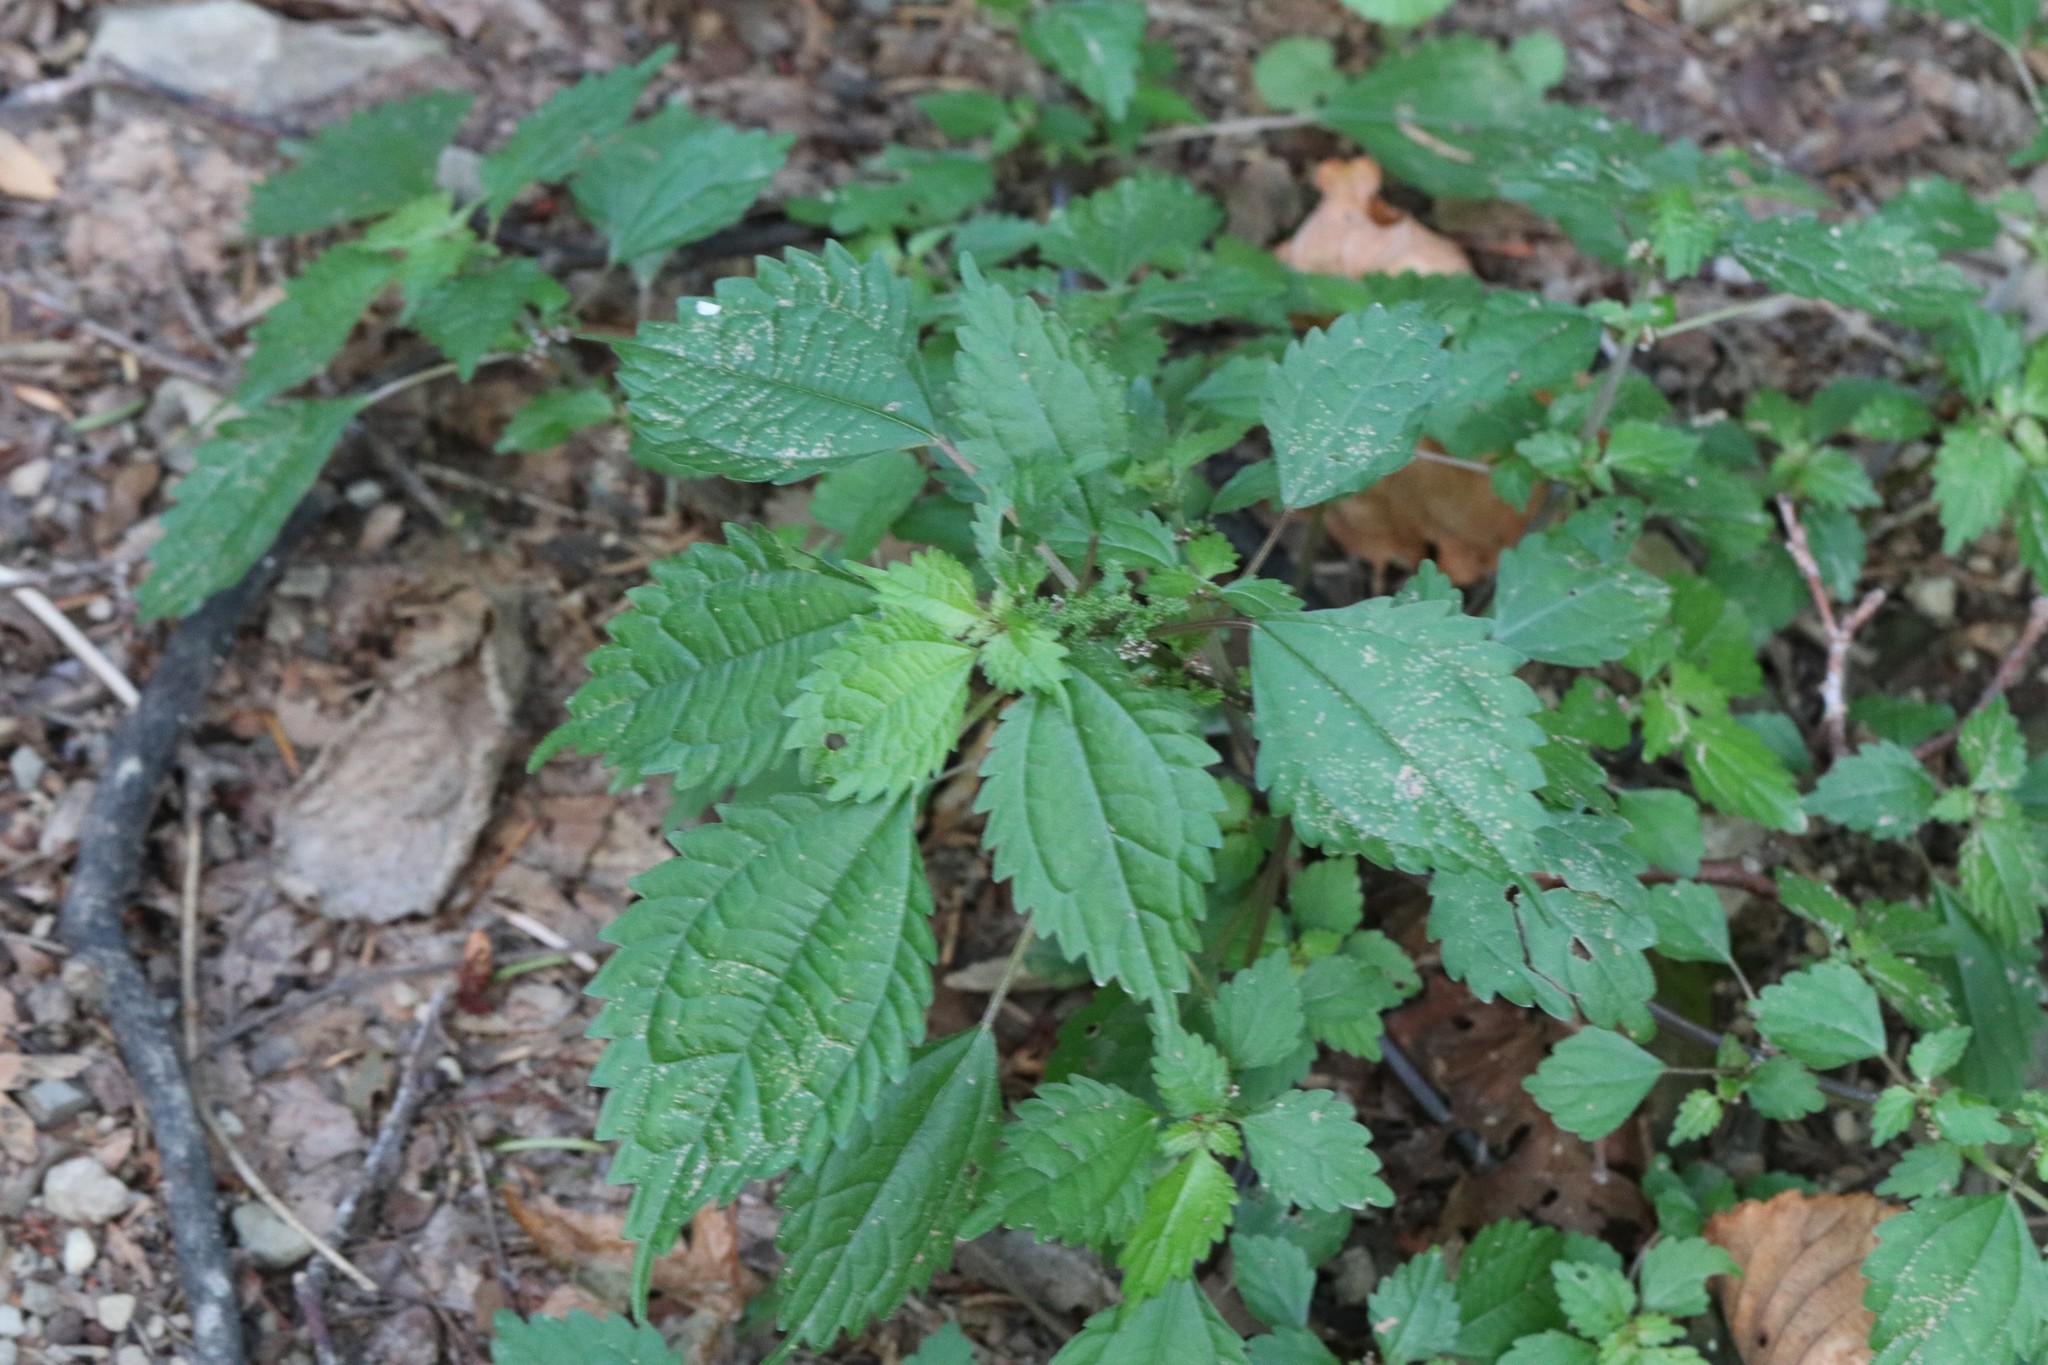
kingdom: Plantae
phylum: Tracheophyta
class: Magnoliopsida
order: Rosales
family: Urticaceae
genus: Pilea
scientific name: Pilea pumila
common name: Clearweed
